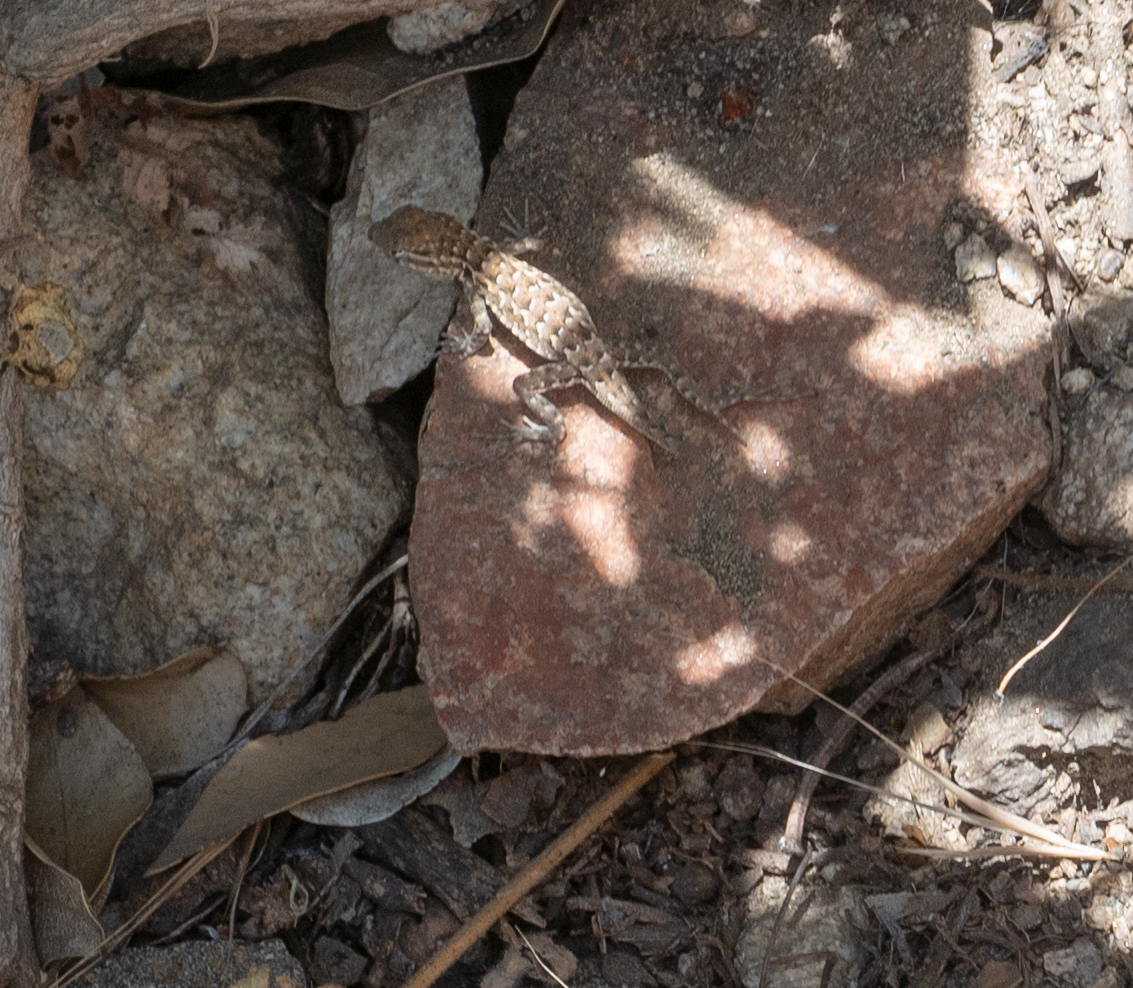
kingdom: Animalia
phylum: Chordata
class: Squamata
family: Phrynosomatidae
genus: Uta
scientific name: Uta stansburiana
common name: Side-blotched lizard
